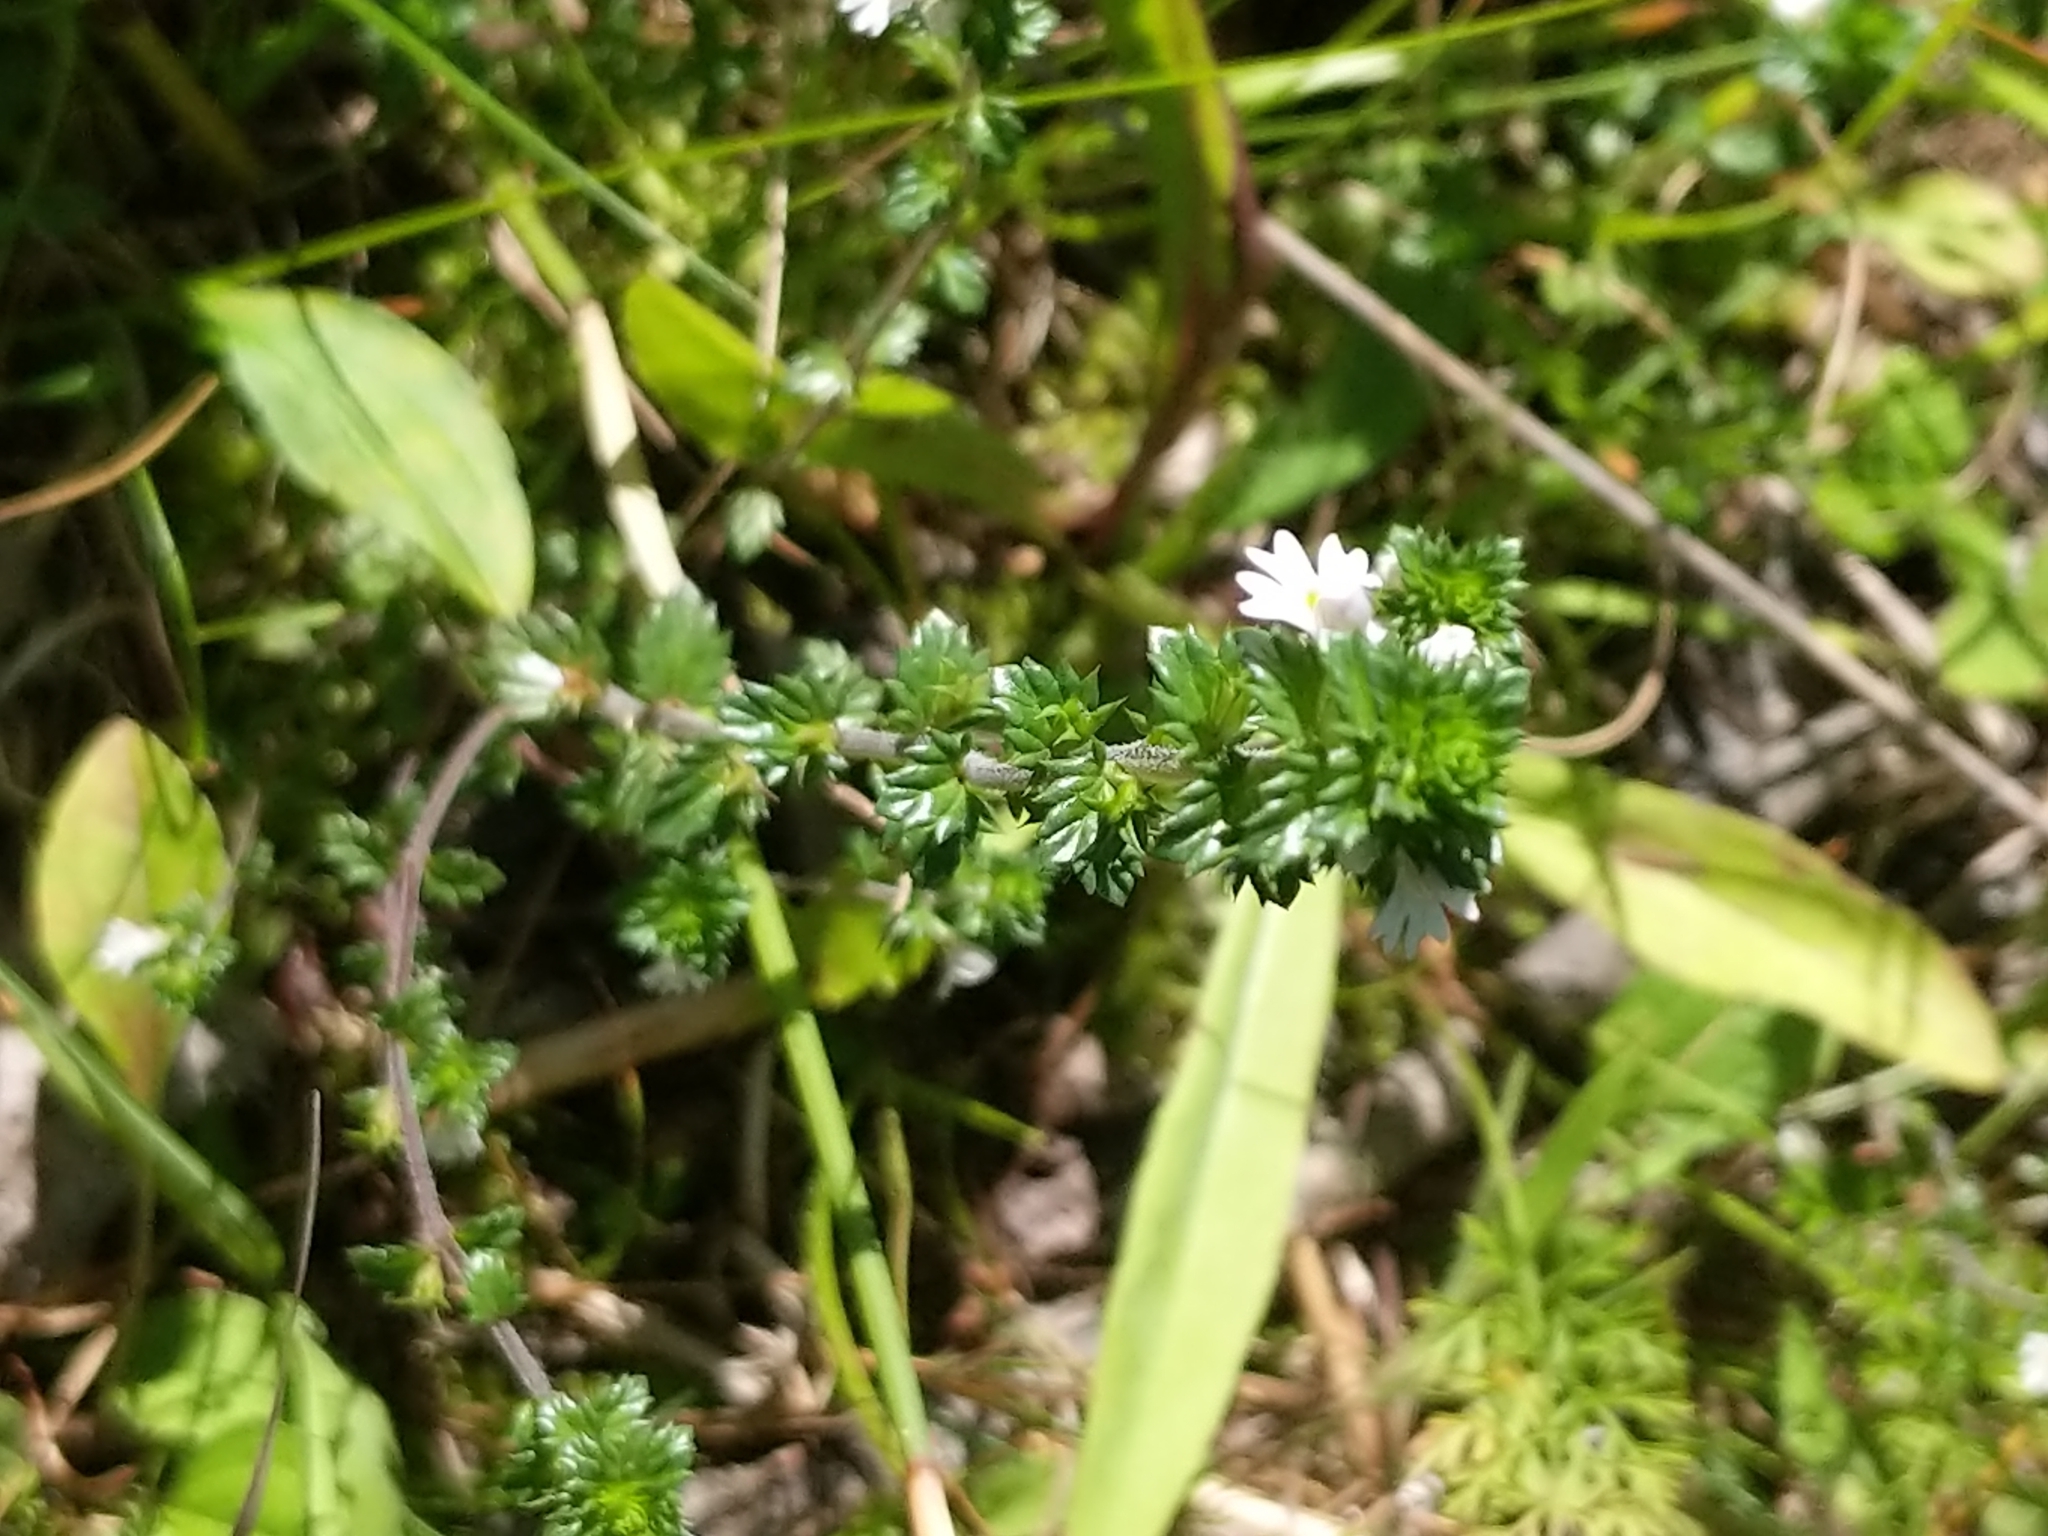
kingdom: Plantae
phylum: Tracheophyta
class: Magnoliopsida
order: Lamiales
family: Orobanchaceae
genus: Euphrasia
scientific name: Euphrasia stricta
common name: Drug eyebright
